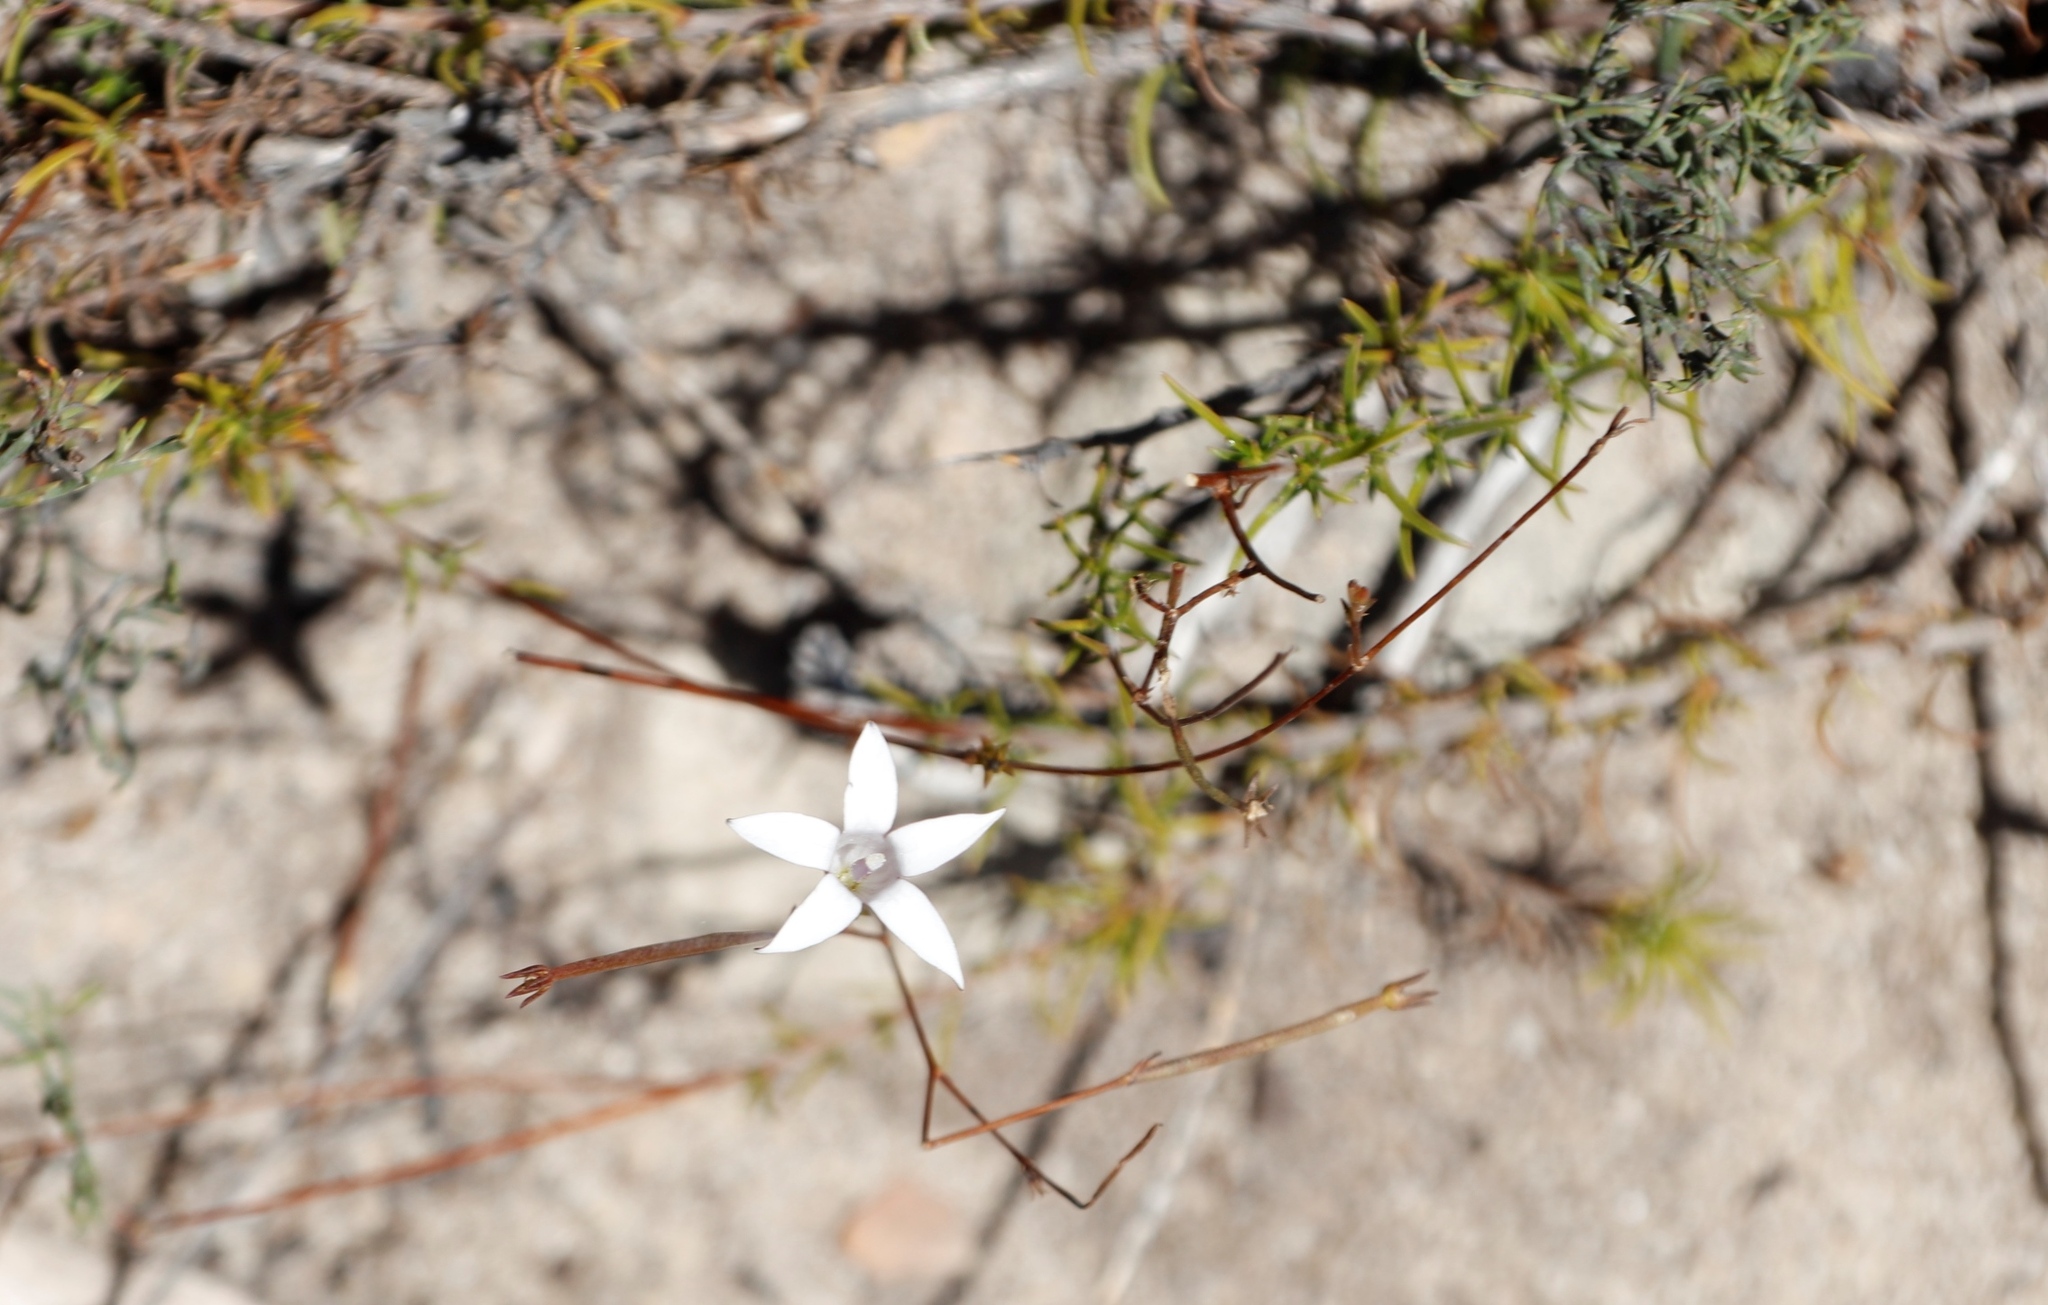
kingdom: Plantae
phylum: Tracheophyta
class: Magnoliopsida
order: Asterales
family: Campanulaceae
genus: Prismatocarpus
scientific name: Prismatocarpus fruticosus
